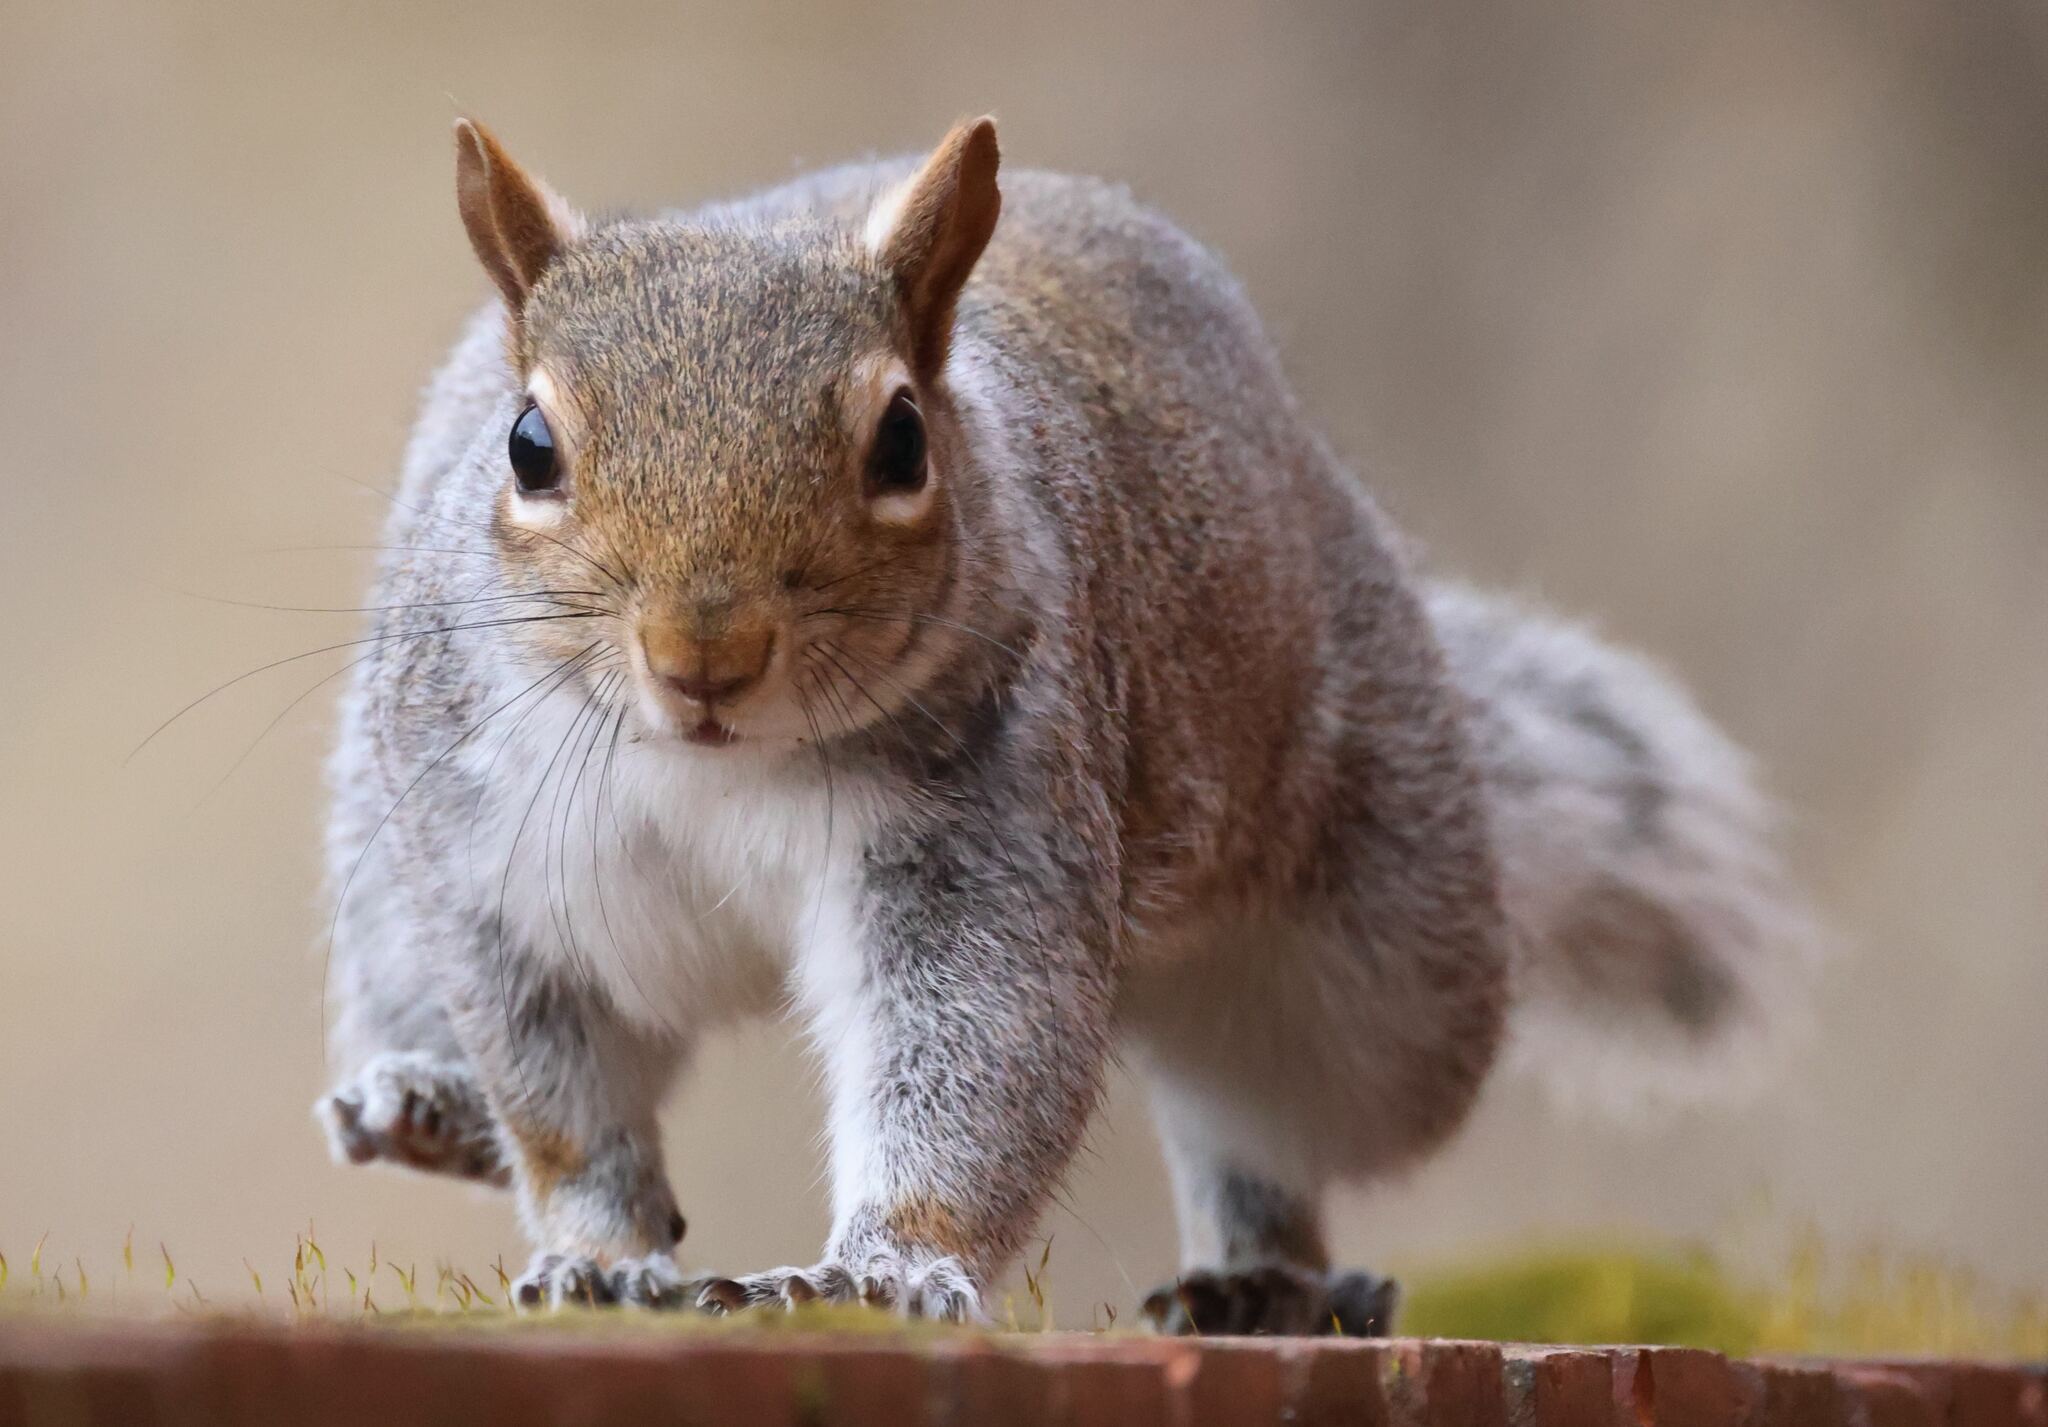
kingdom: Animalia
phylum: Chordata
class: Mammalia
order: Rodentia
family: Sciuridae
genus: Sciurus
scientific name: Sciurus carolinensis
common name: Eastern gray squirrel
